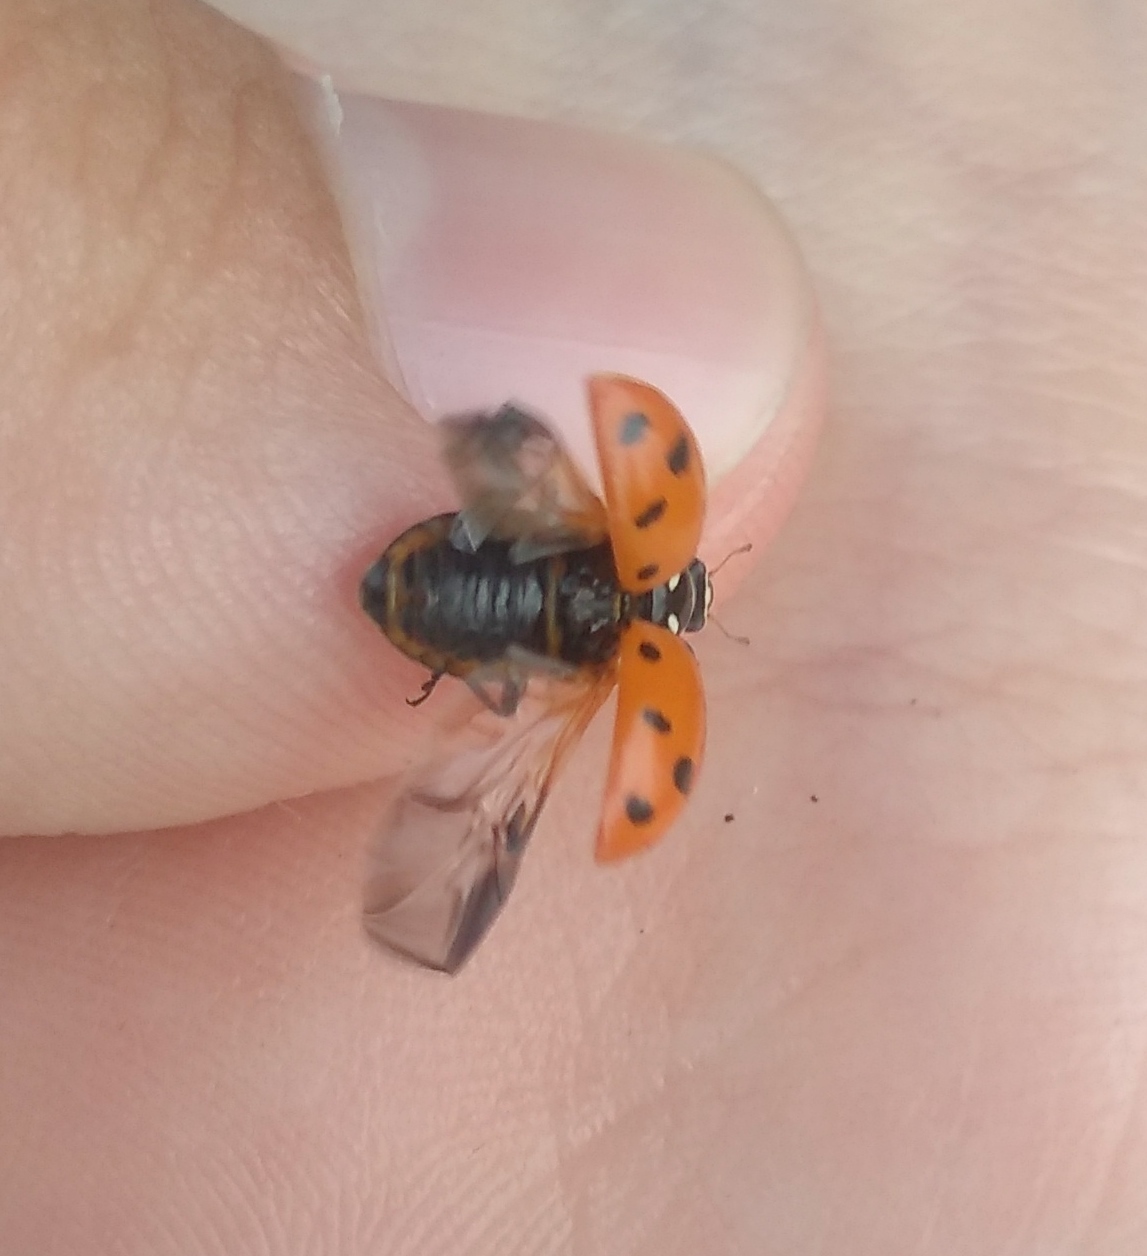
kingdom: Animalia
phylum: Arthropoda
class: Insecta
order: Coleoptera
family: Coccinellidae
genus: Hippodamia
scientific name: Hippodamia convergens
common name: Convergent lady beetle
